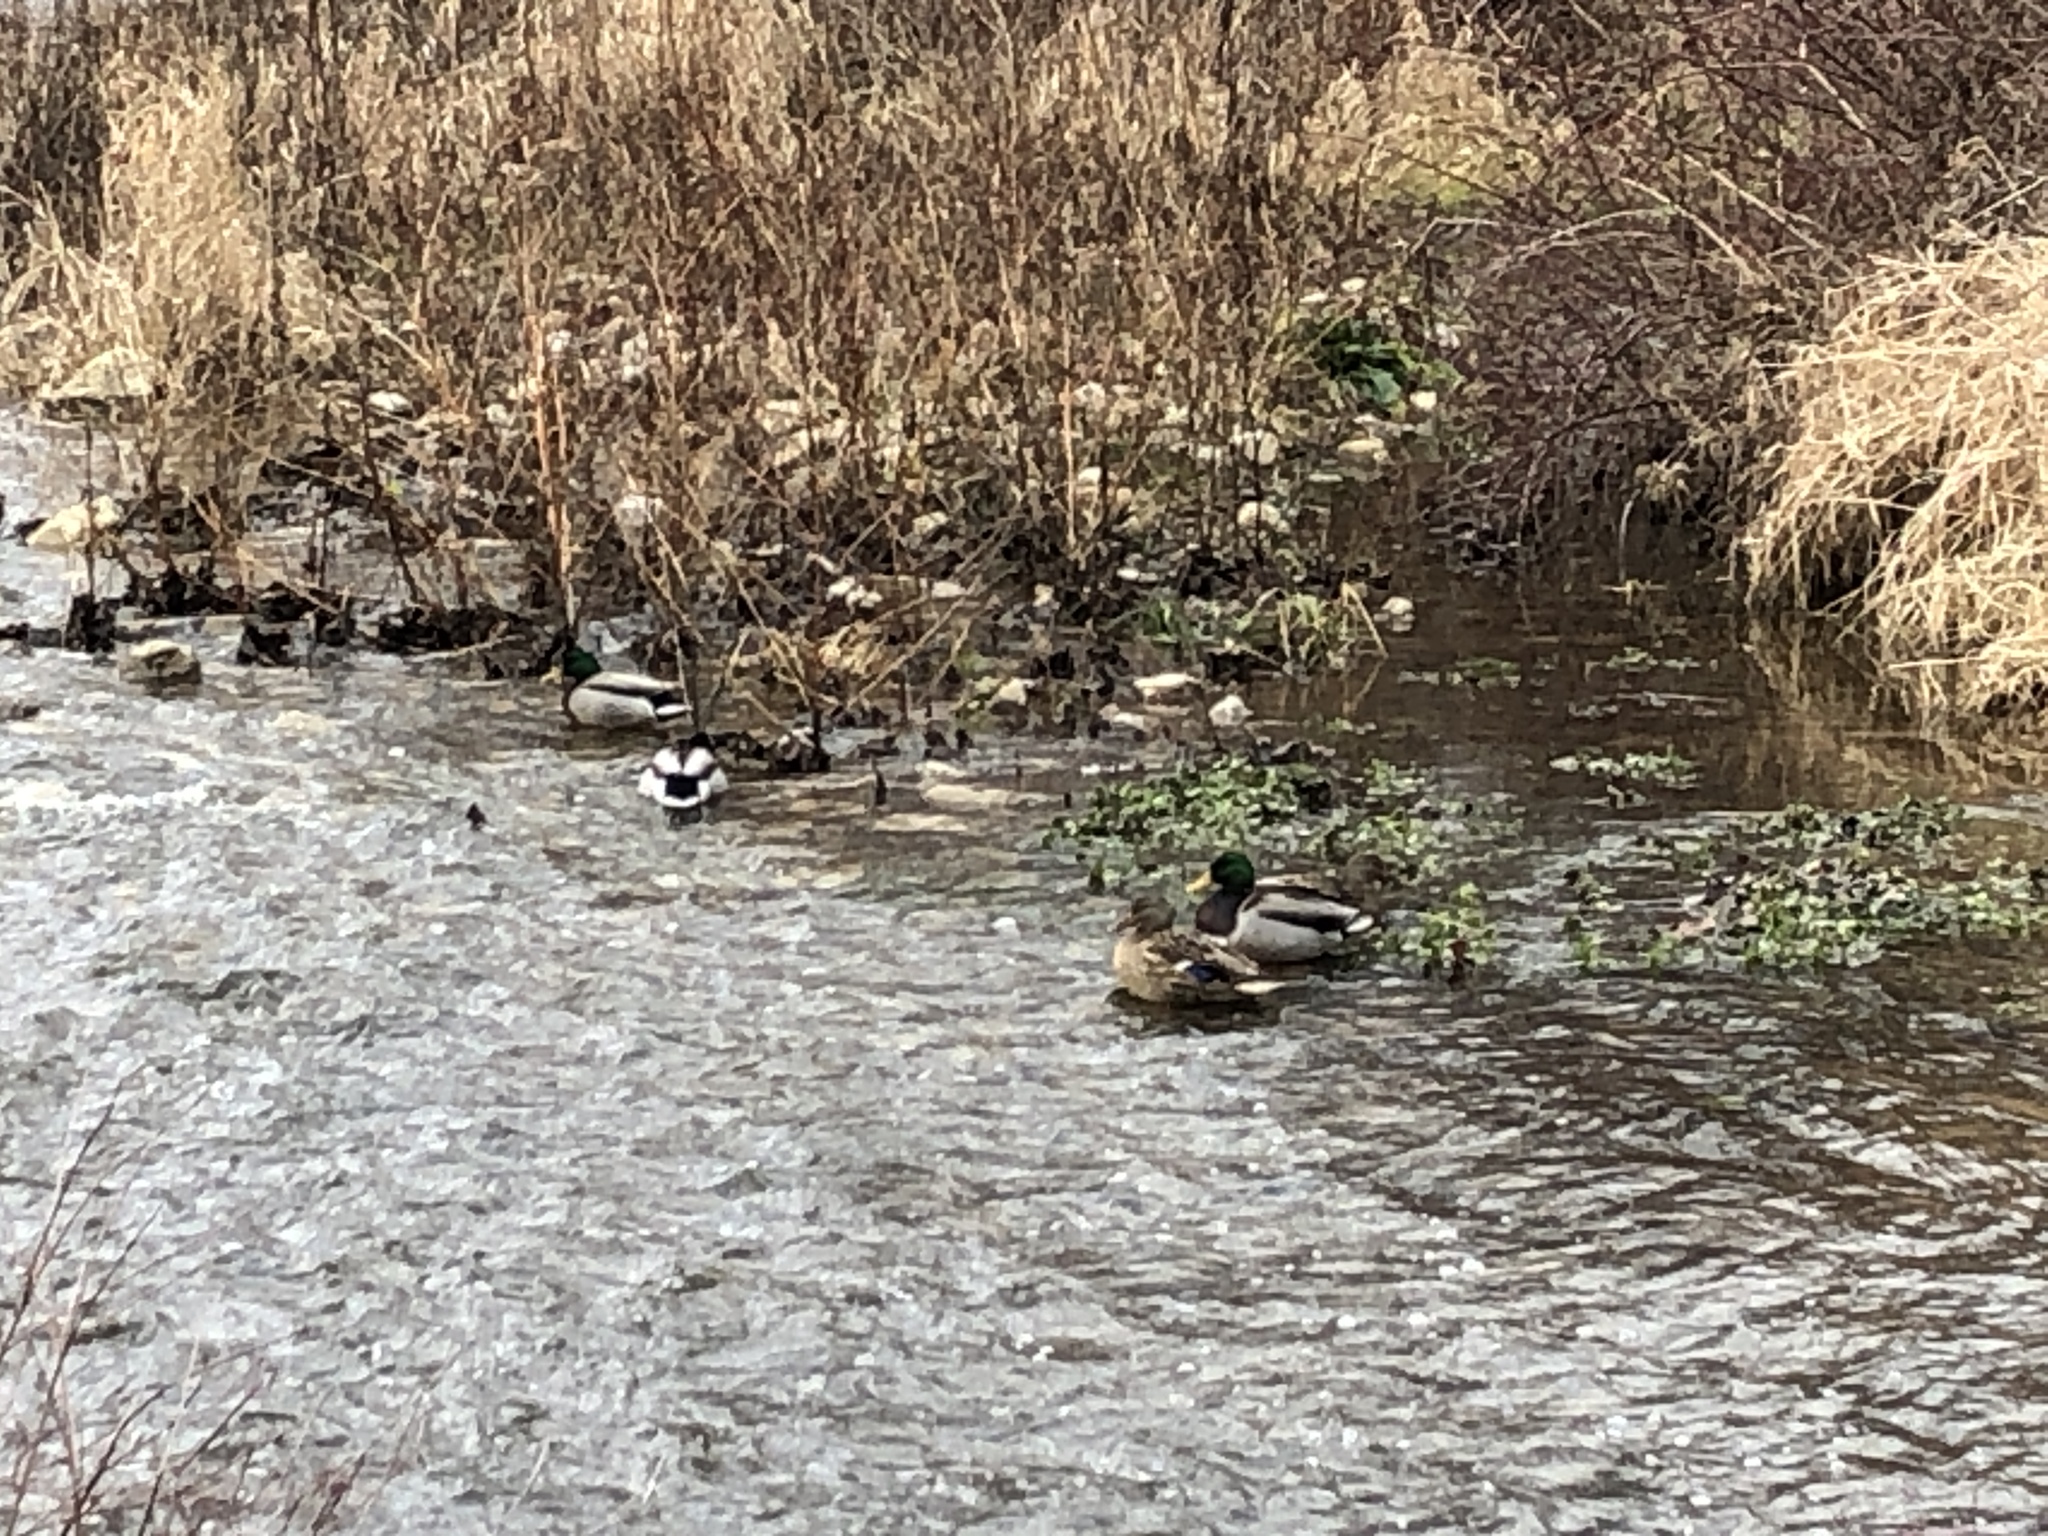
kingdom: Animalia
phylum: Chordata
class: Aves
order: Anseriformes
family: Anatidae
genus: Anas
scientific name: Anas platyrhynchos
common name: Mallard
